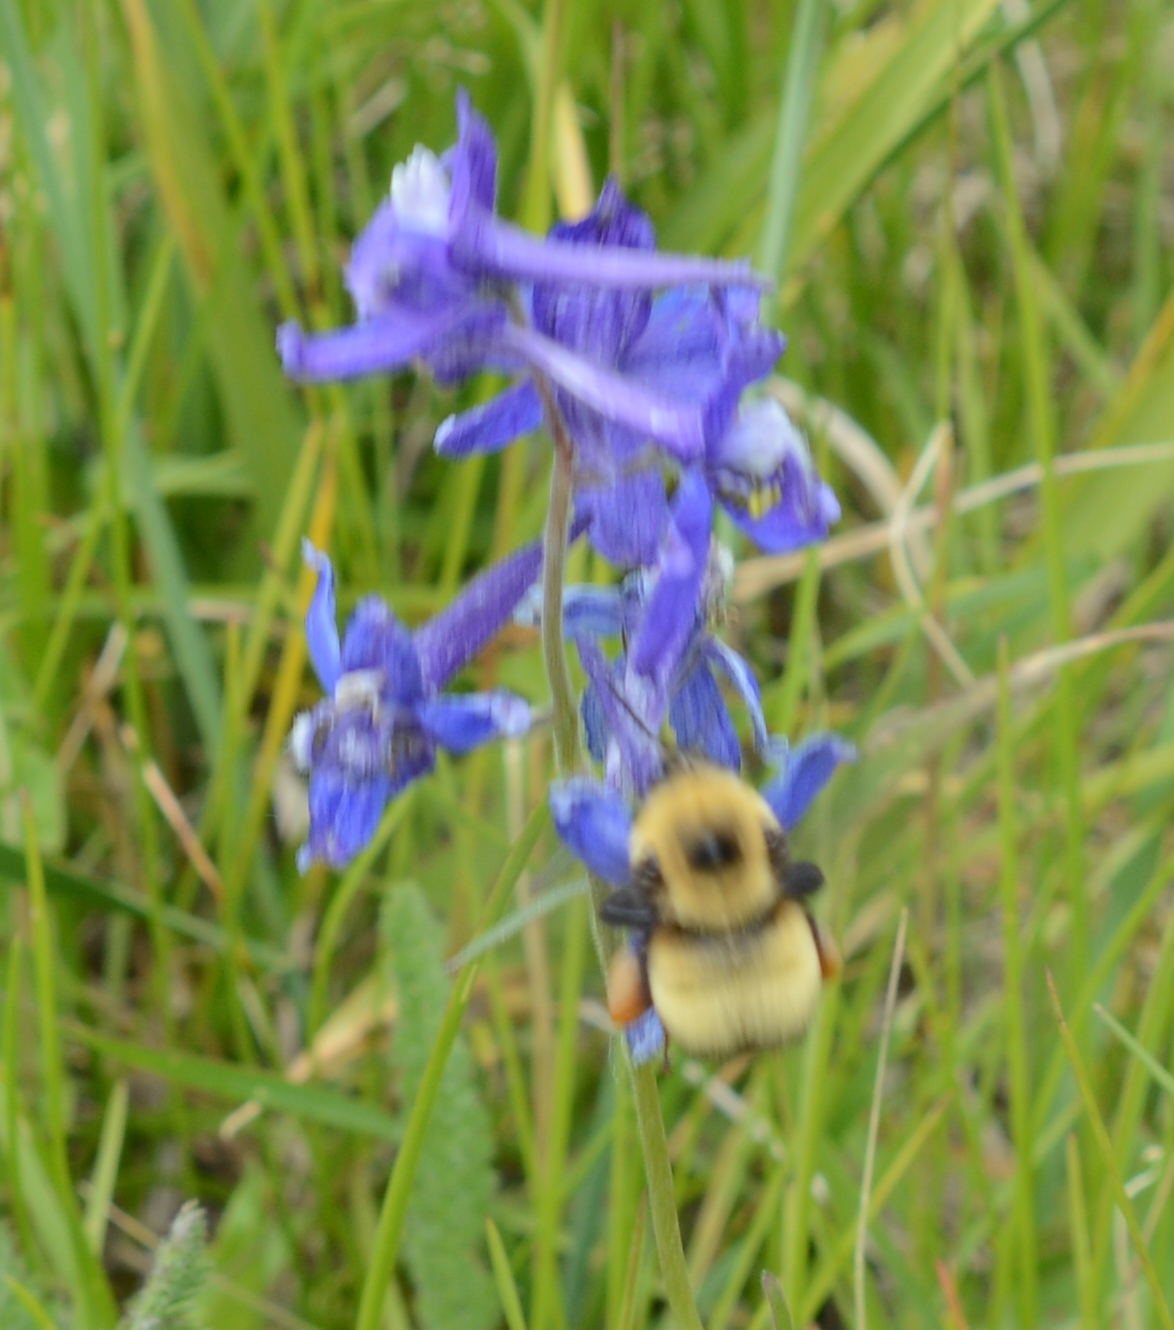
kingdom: Animalia
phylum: Arthropoda
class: Insecta
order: Hymenoptera
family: Apidae
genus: Bombus
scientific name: Bombus nevadensis
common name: Nevada bumble bee
